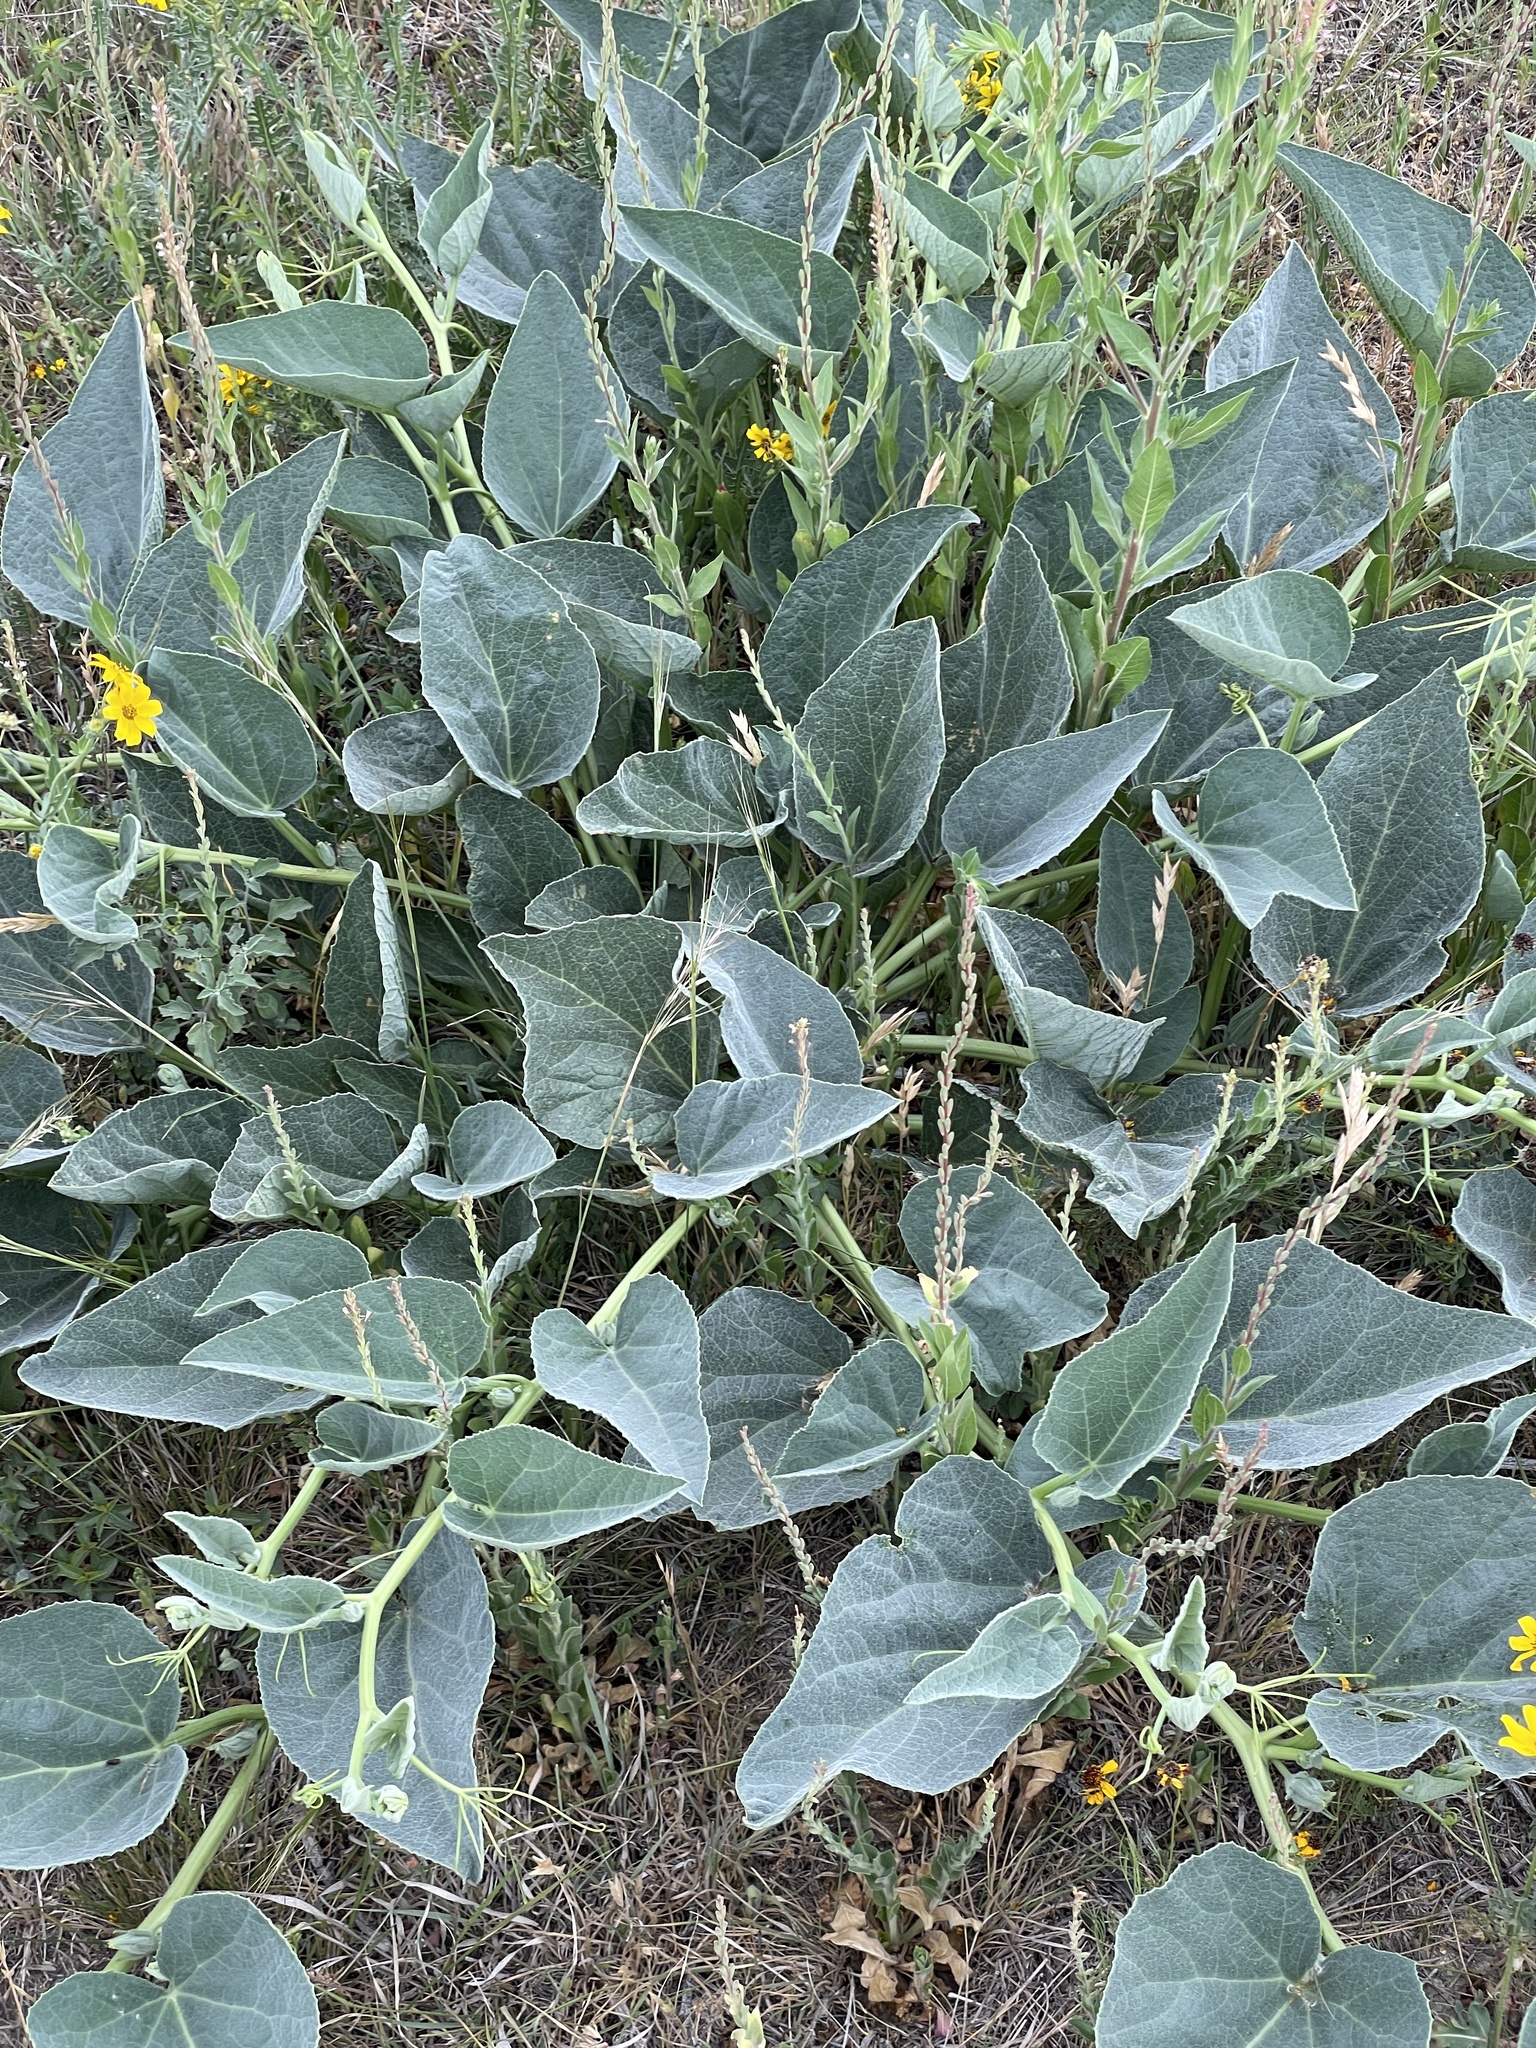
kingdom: Plantae
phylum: Tracheophyta
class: Magnoliopsida
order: Cucurbitales
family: Cucurbitaceae
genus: Cucurbita
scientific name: Cucurbita foetidissima
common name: Buffalo gourd
